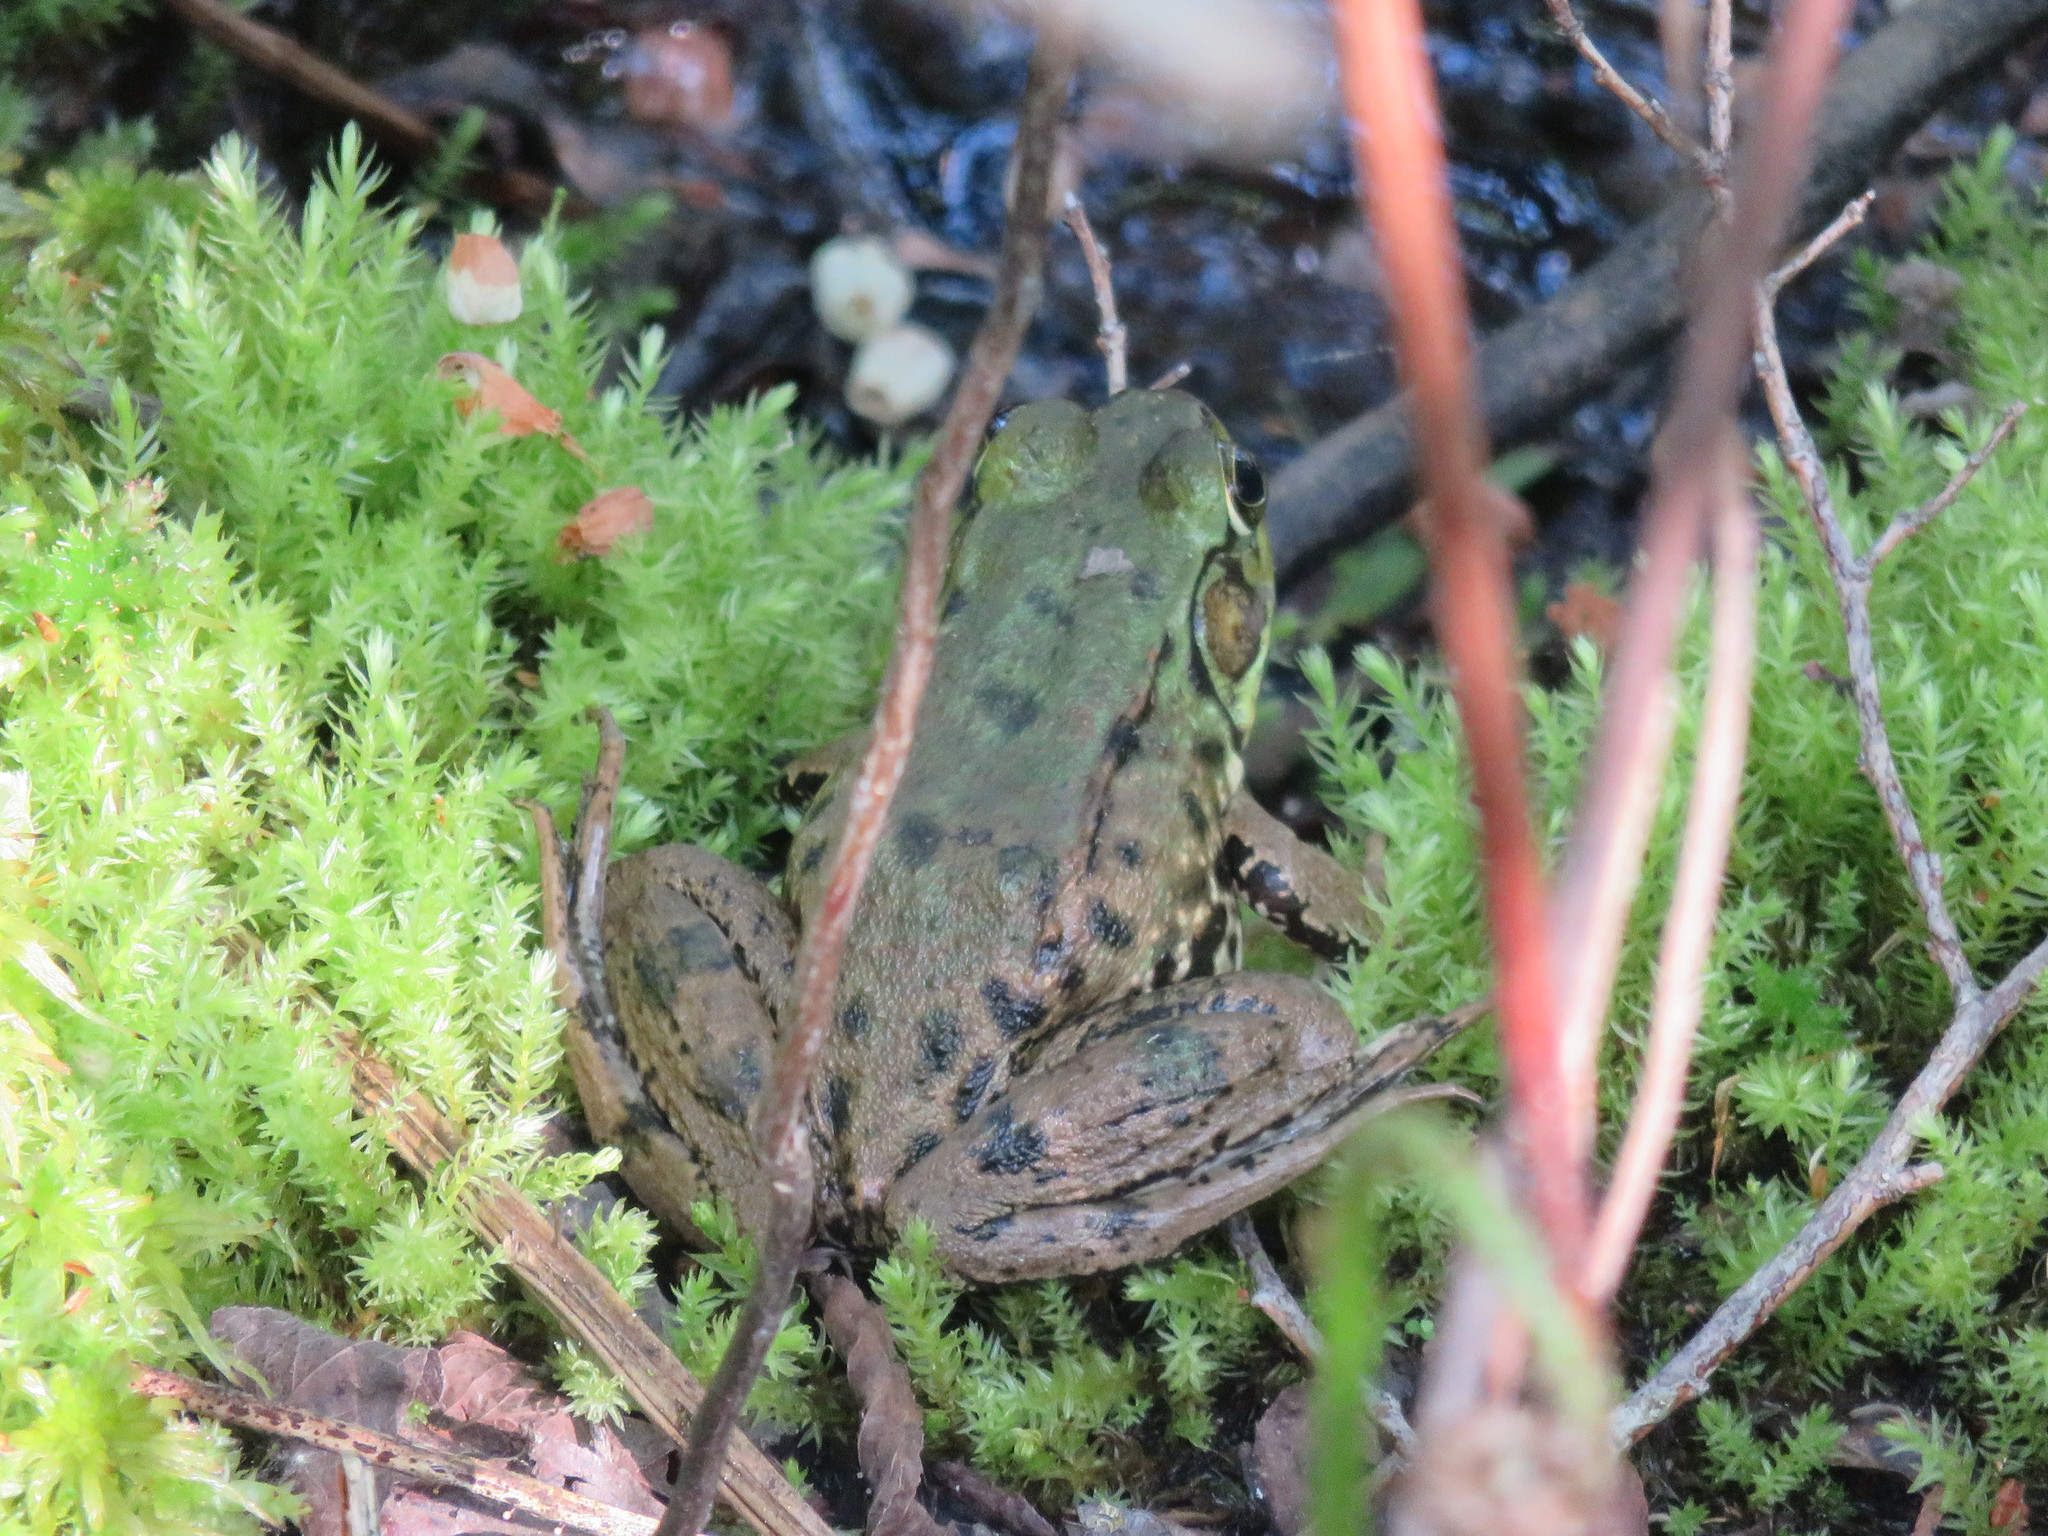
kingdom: Animalia
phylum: Chordata
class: Amphibia
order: Anura
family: Ranidae
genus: Lithobates
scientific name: Lithobates clamitans
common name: Green frog
